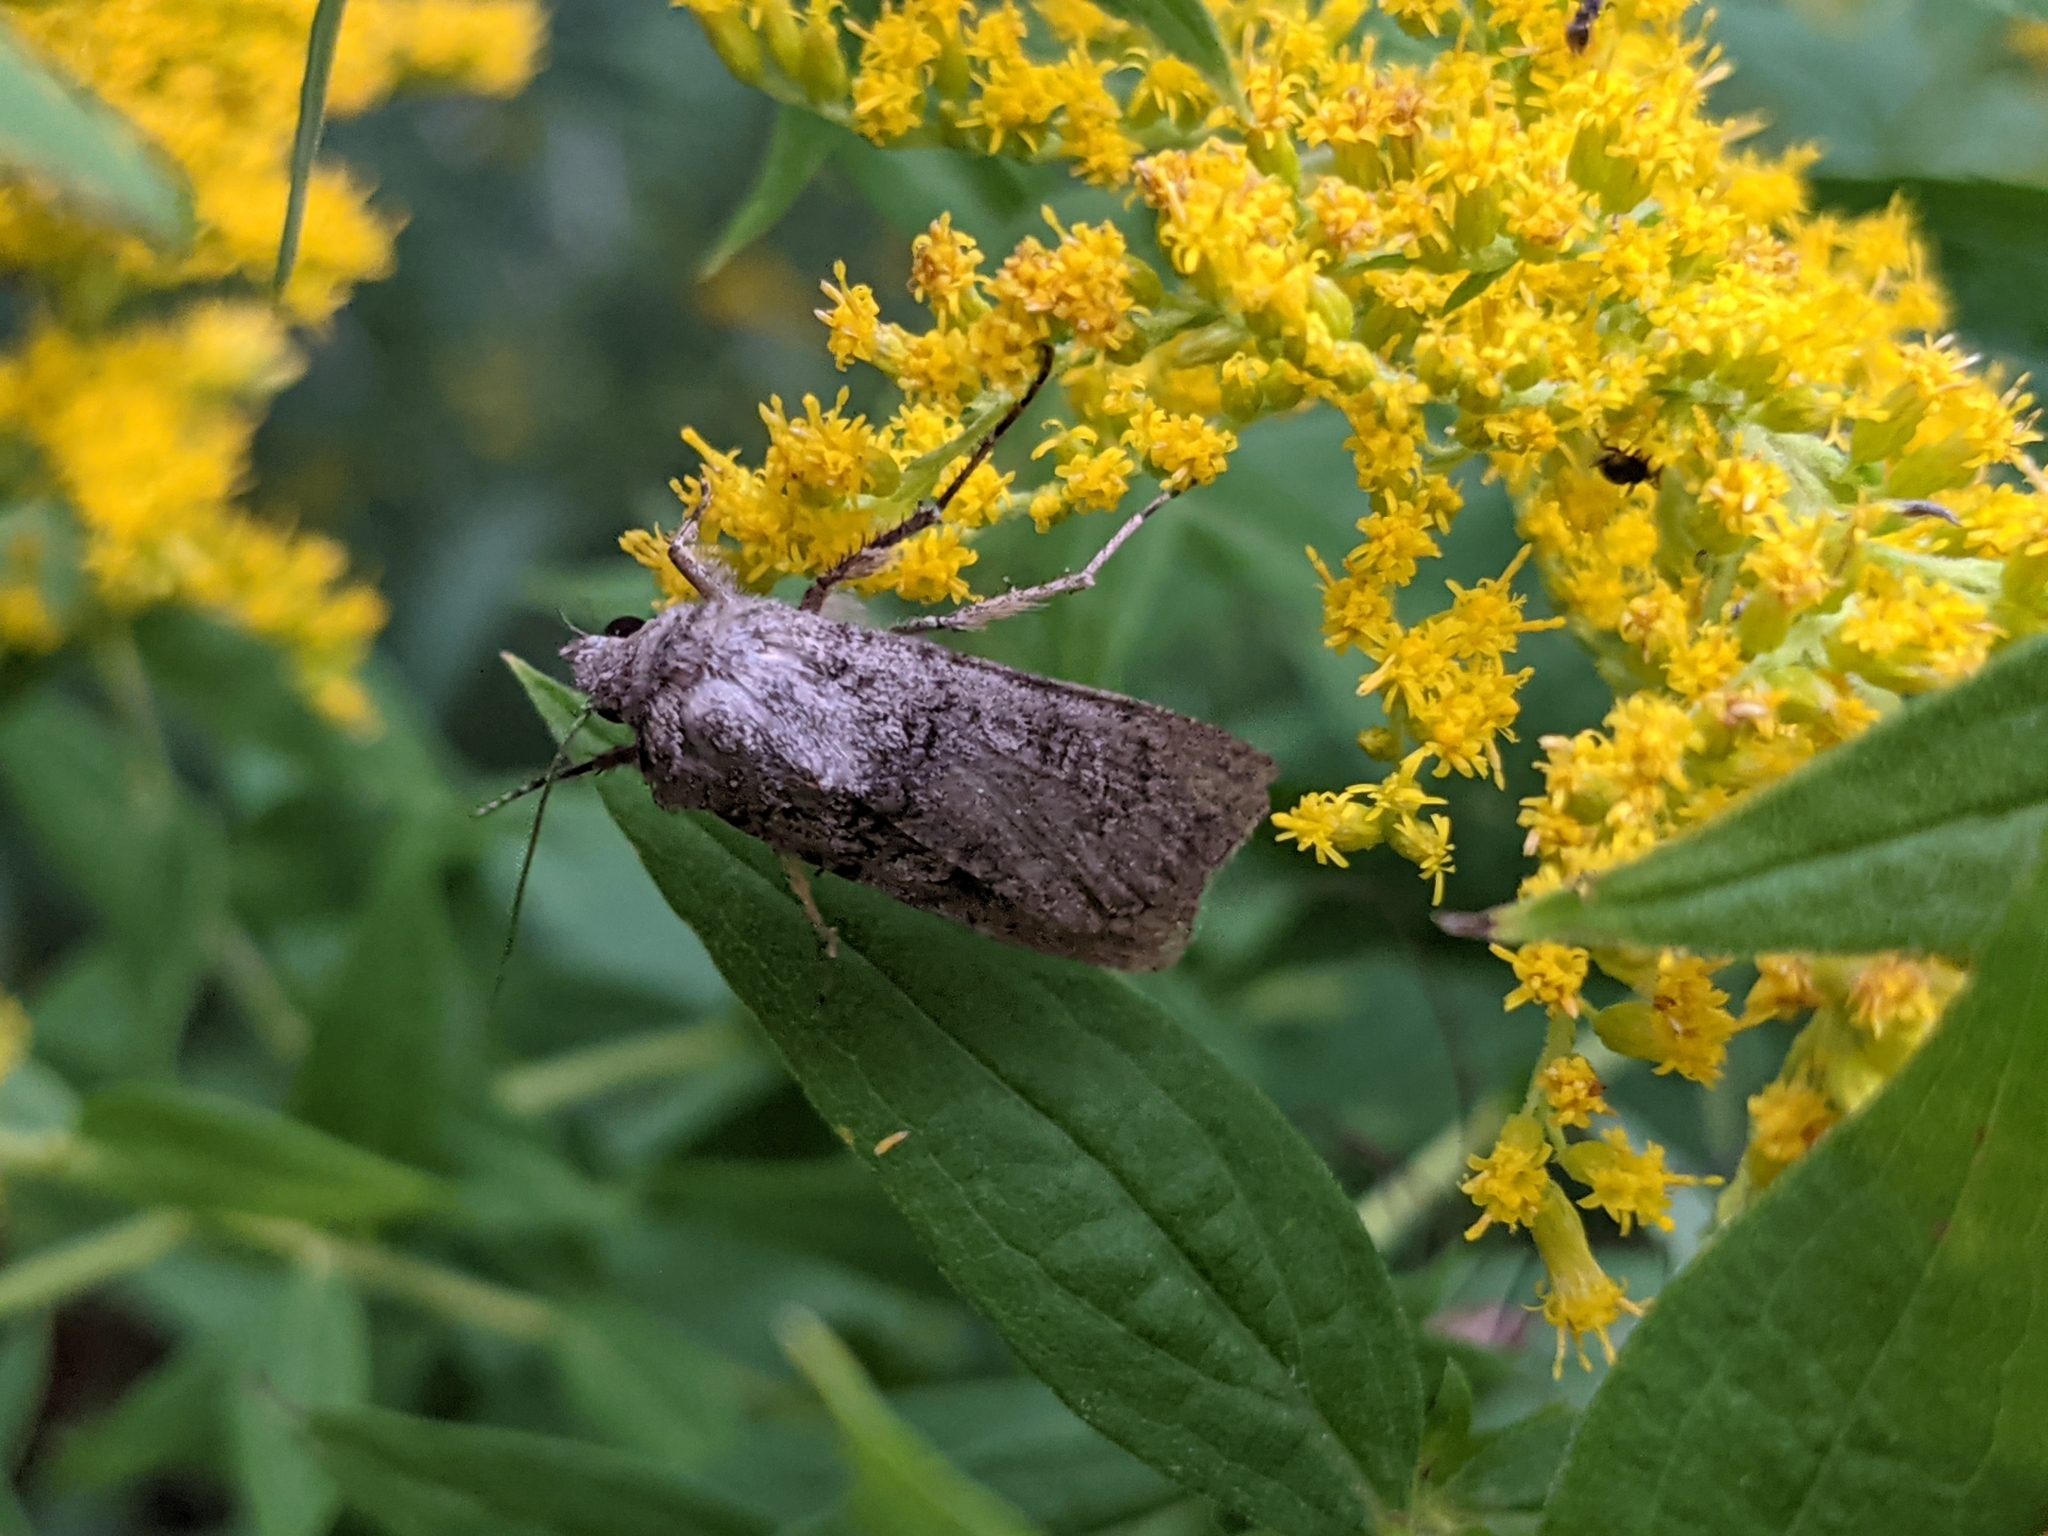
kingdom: Animalia
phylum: Arthropoda
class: Insecta
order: Lepidoptera
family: Noctuidae
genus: Euxoa
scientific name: Euxoa messoria
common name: Darksided cutworm
